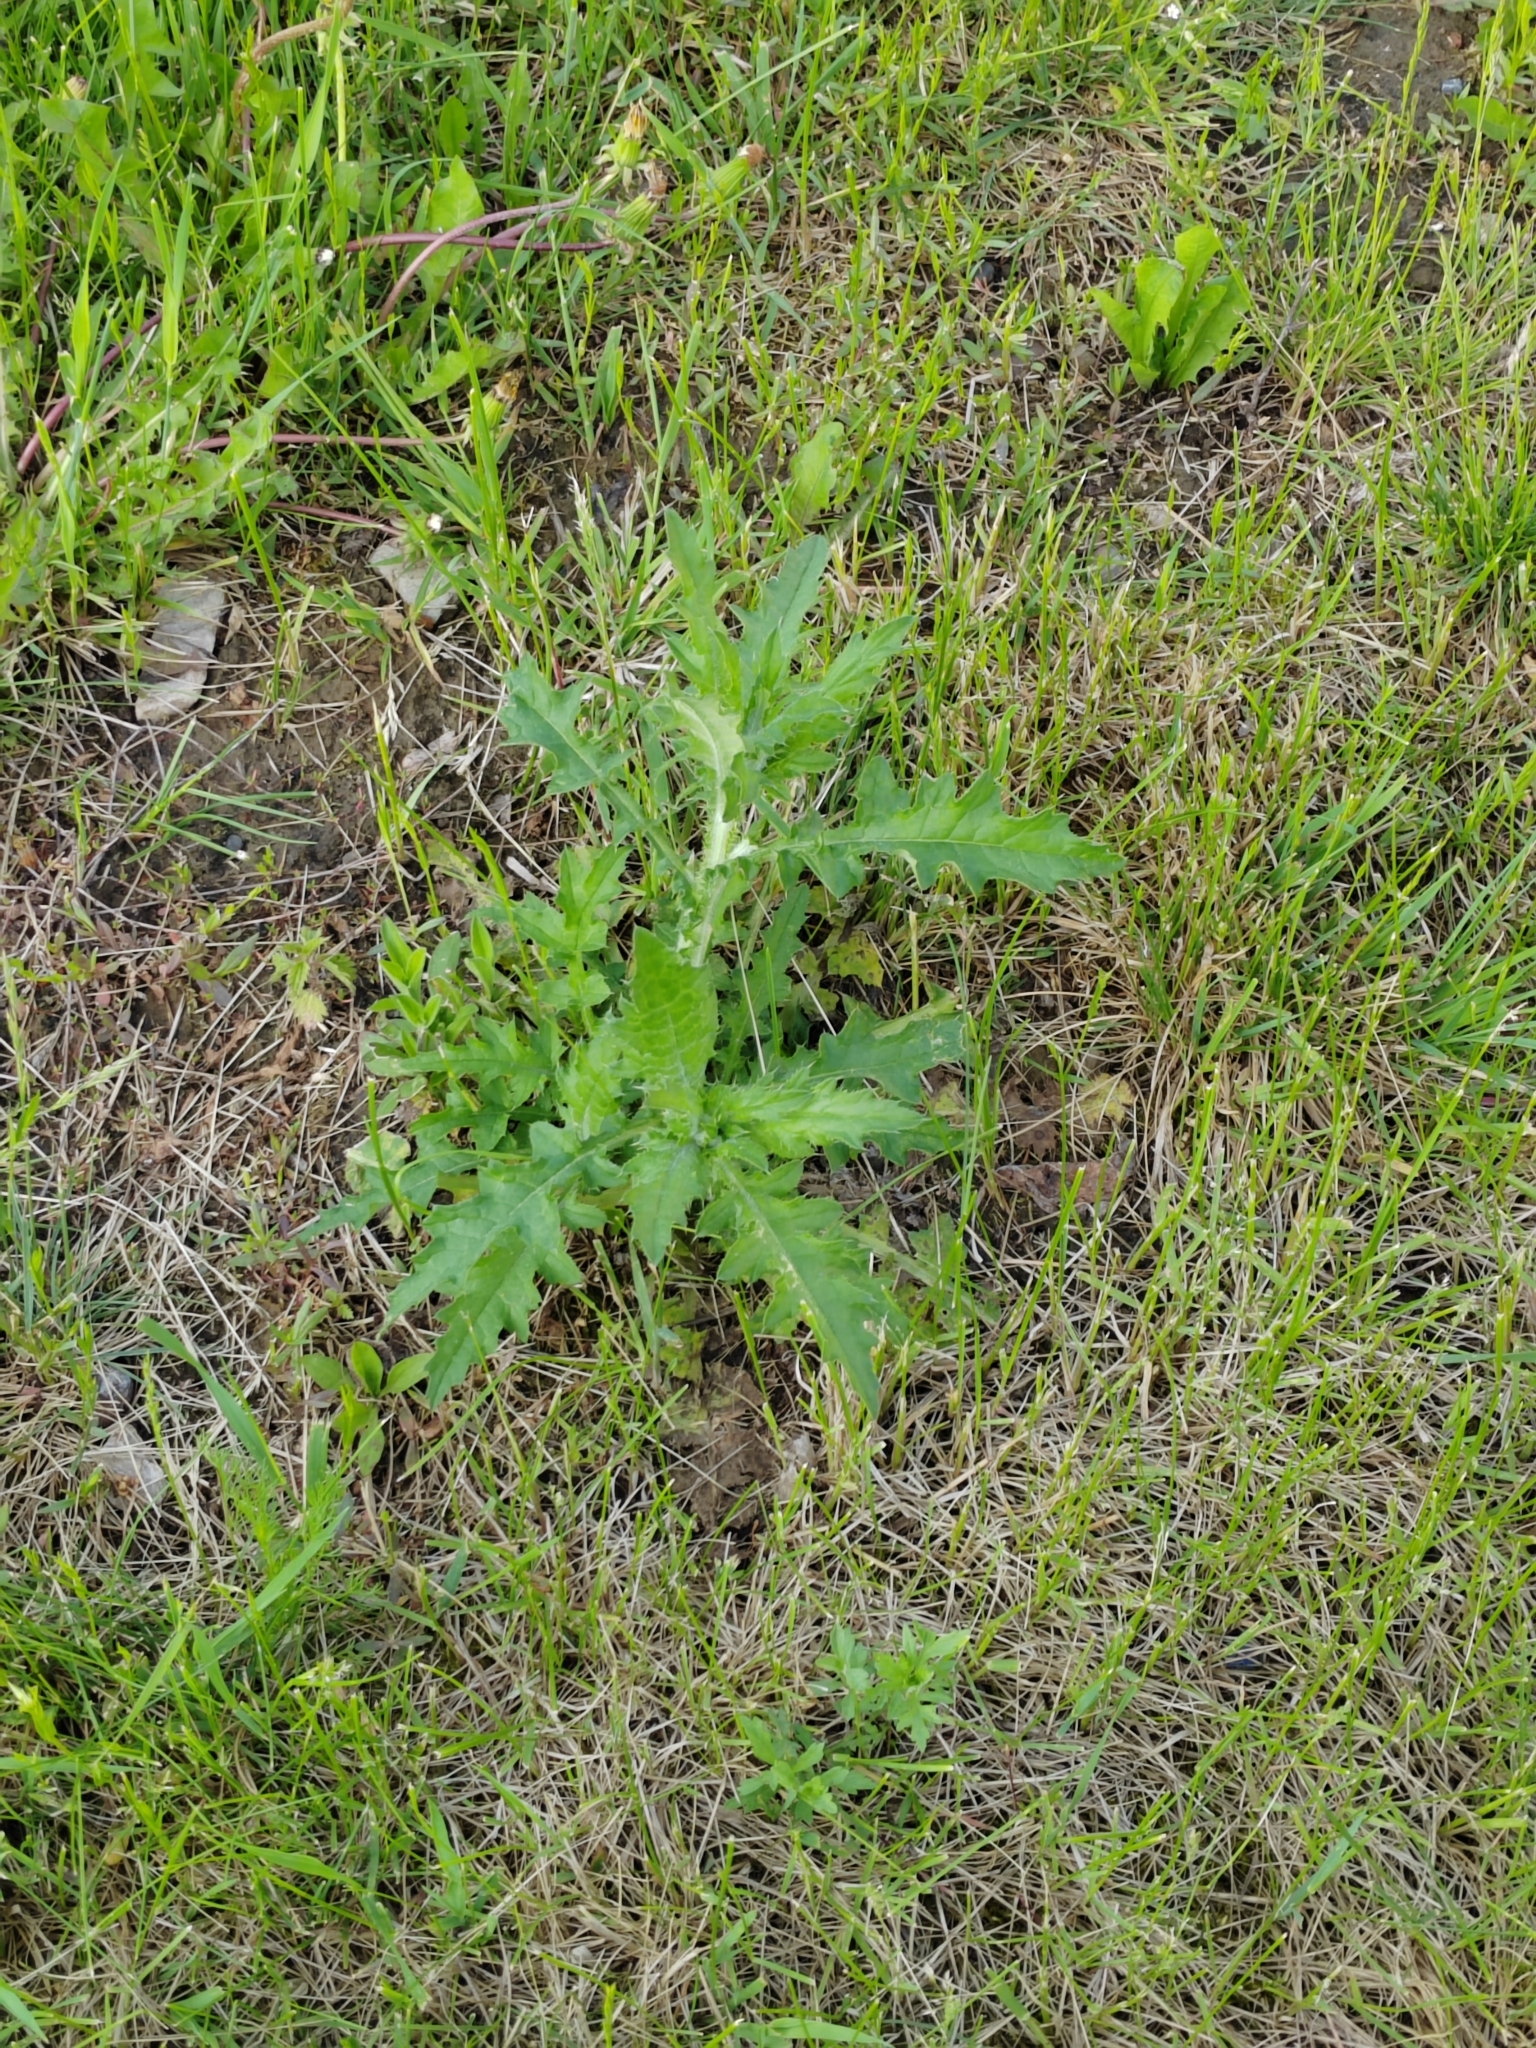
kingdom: Plantae
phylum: Tracheophyta
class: Magnoliopsida
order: Asterales
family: Asteraceae
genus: Carduus
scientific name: Carduus crispus
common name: Welted thistle
